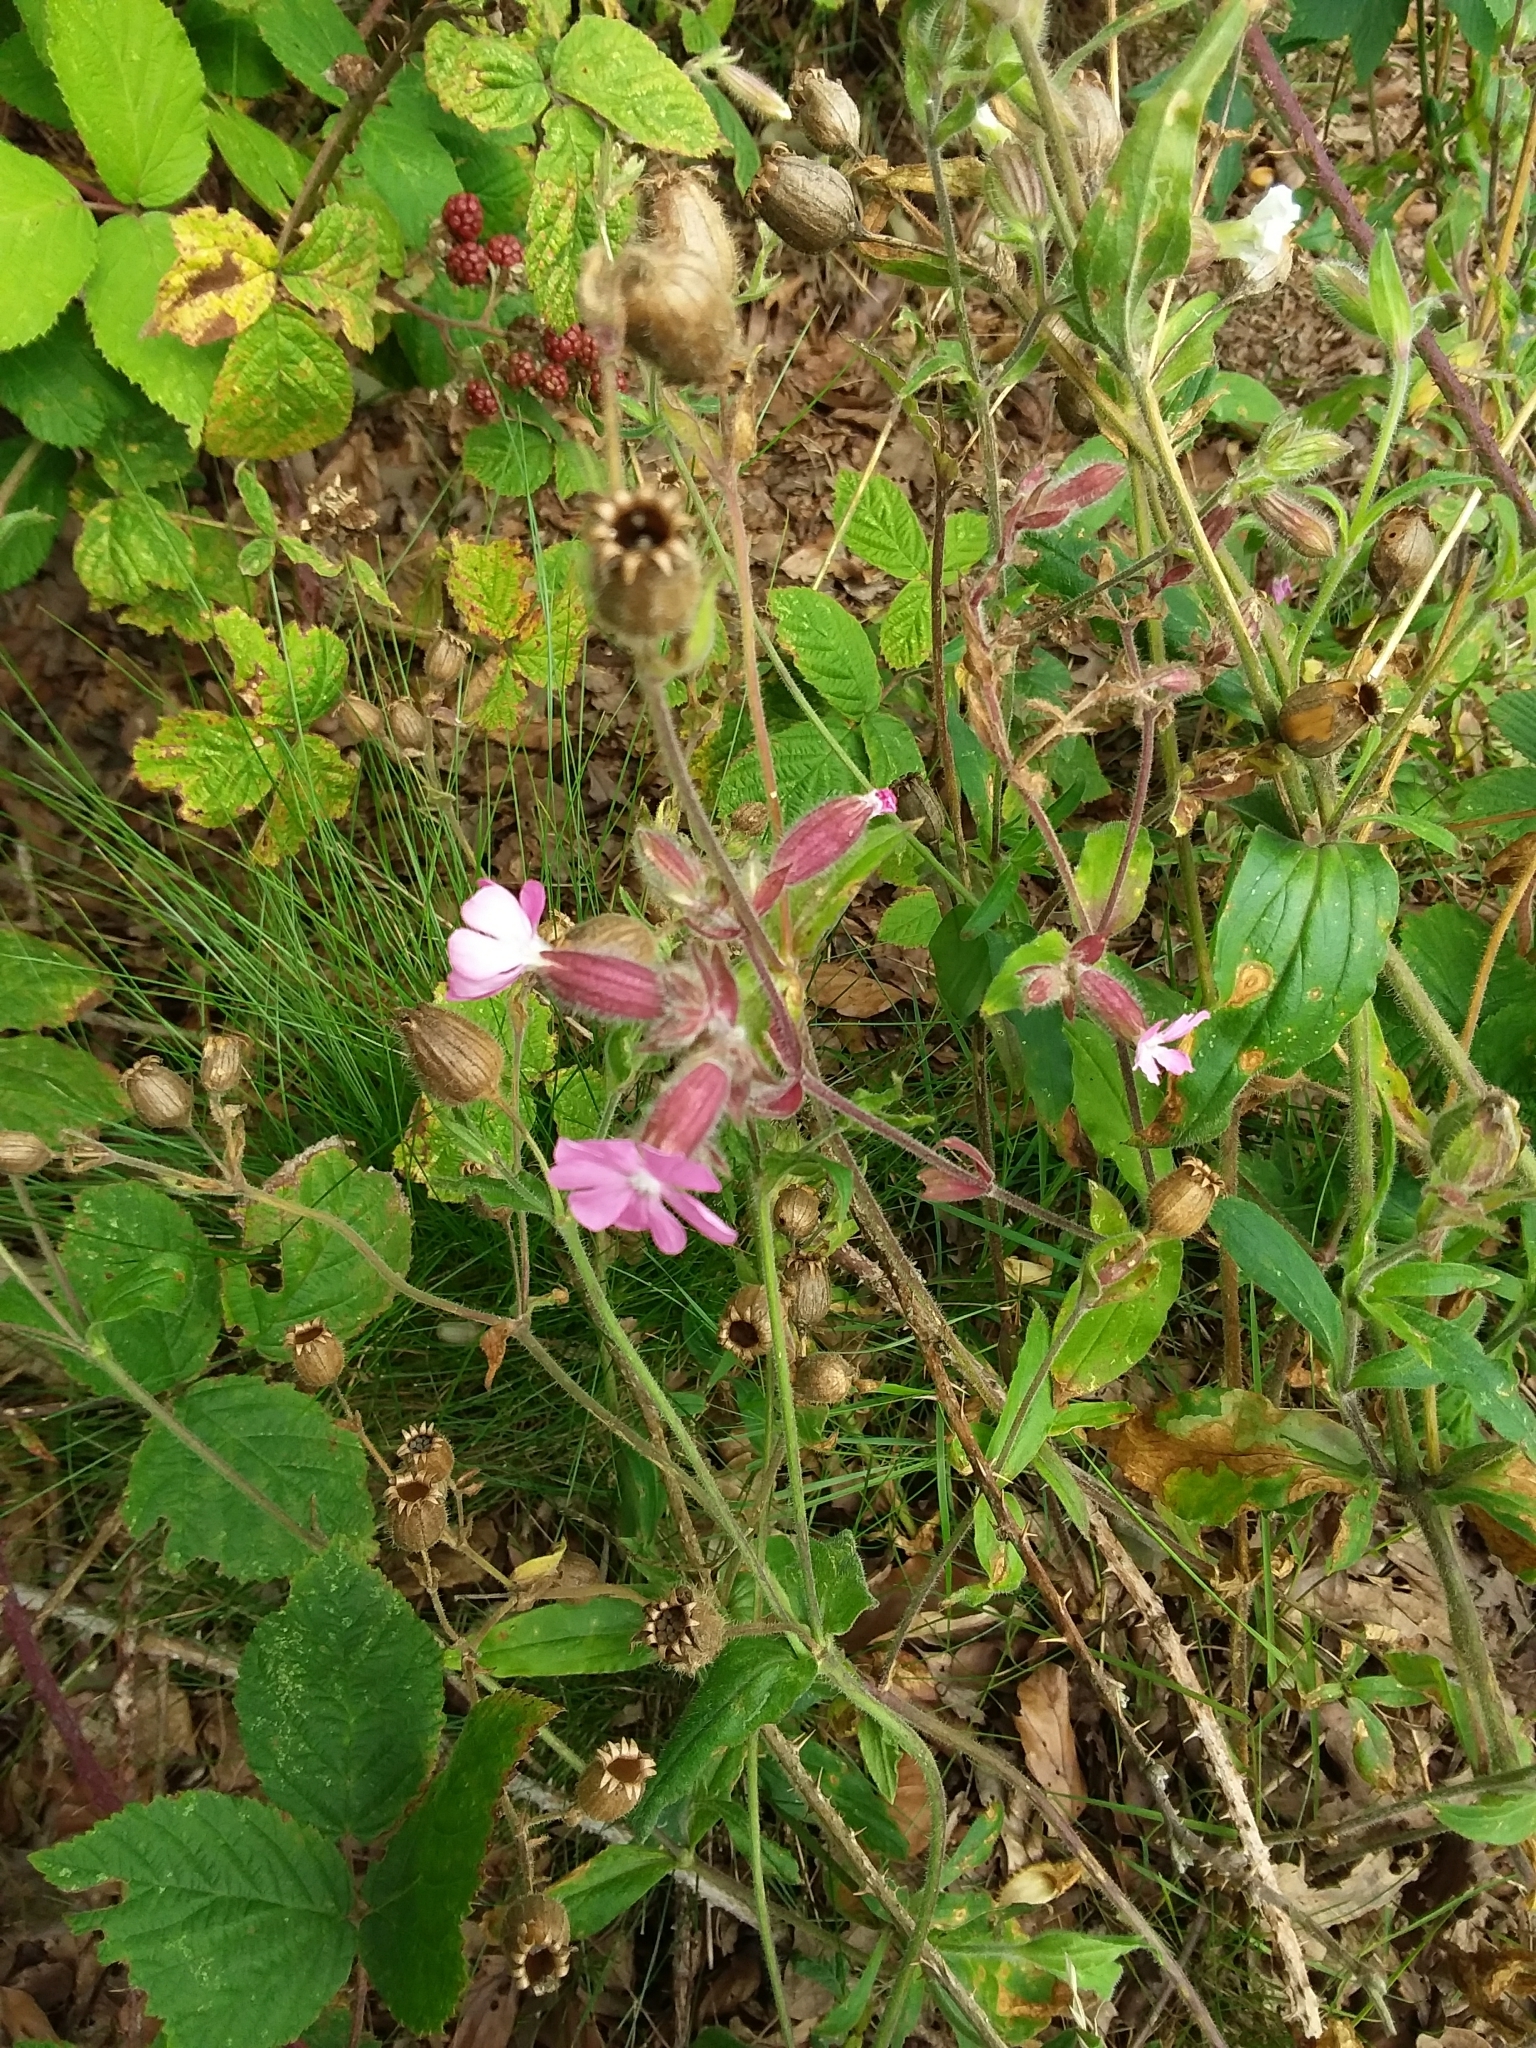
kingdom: Plantae
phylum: Tracheophyta
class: Magnoliopsida
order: Caryophyllales
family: Caryophyllaceae
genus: Silene
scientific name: Silene dioica
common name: Red campion
